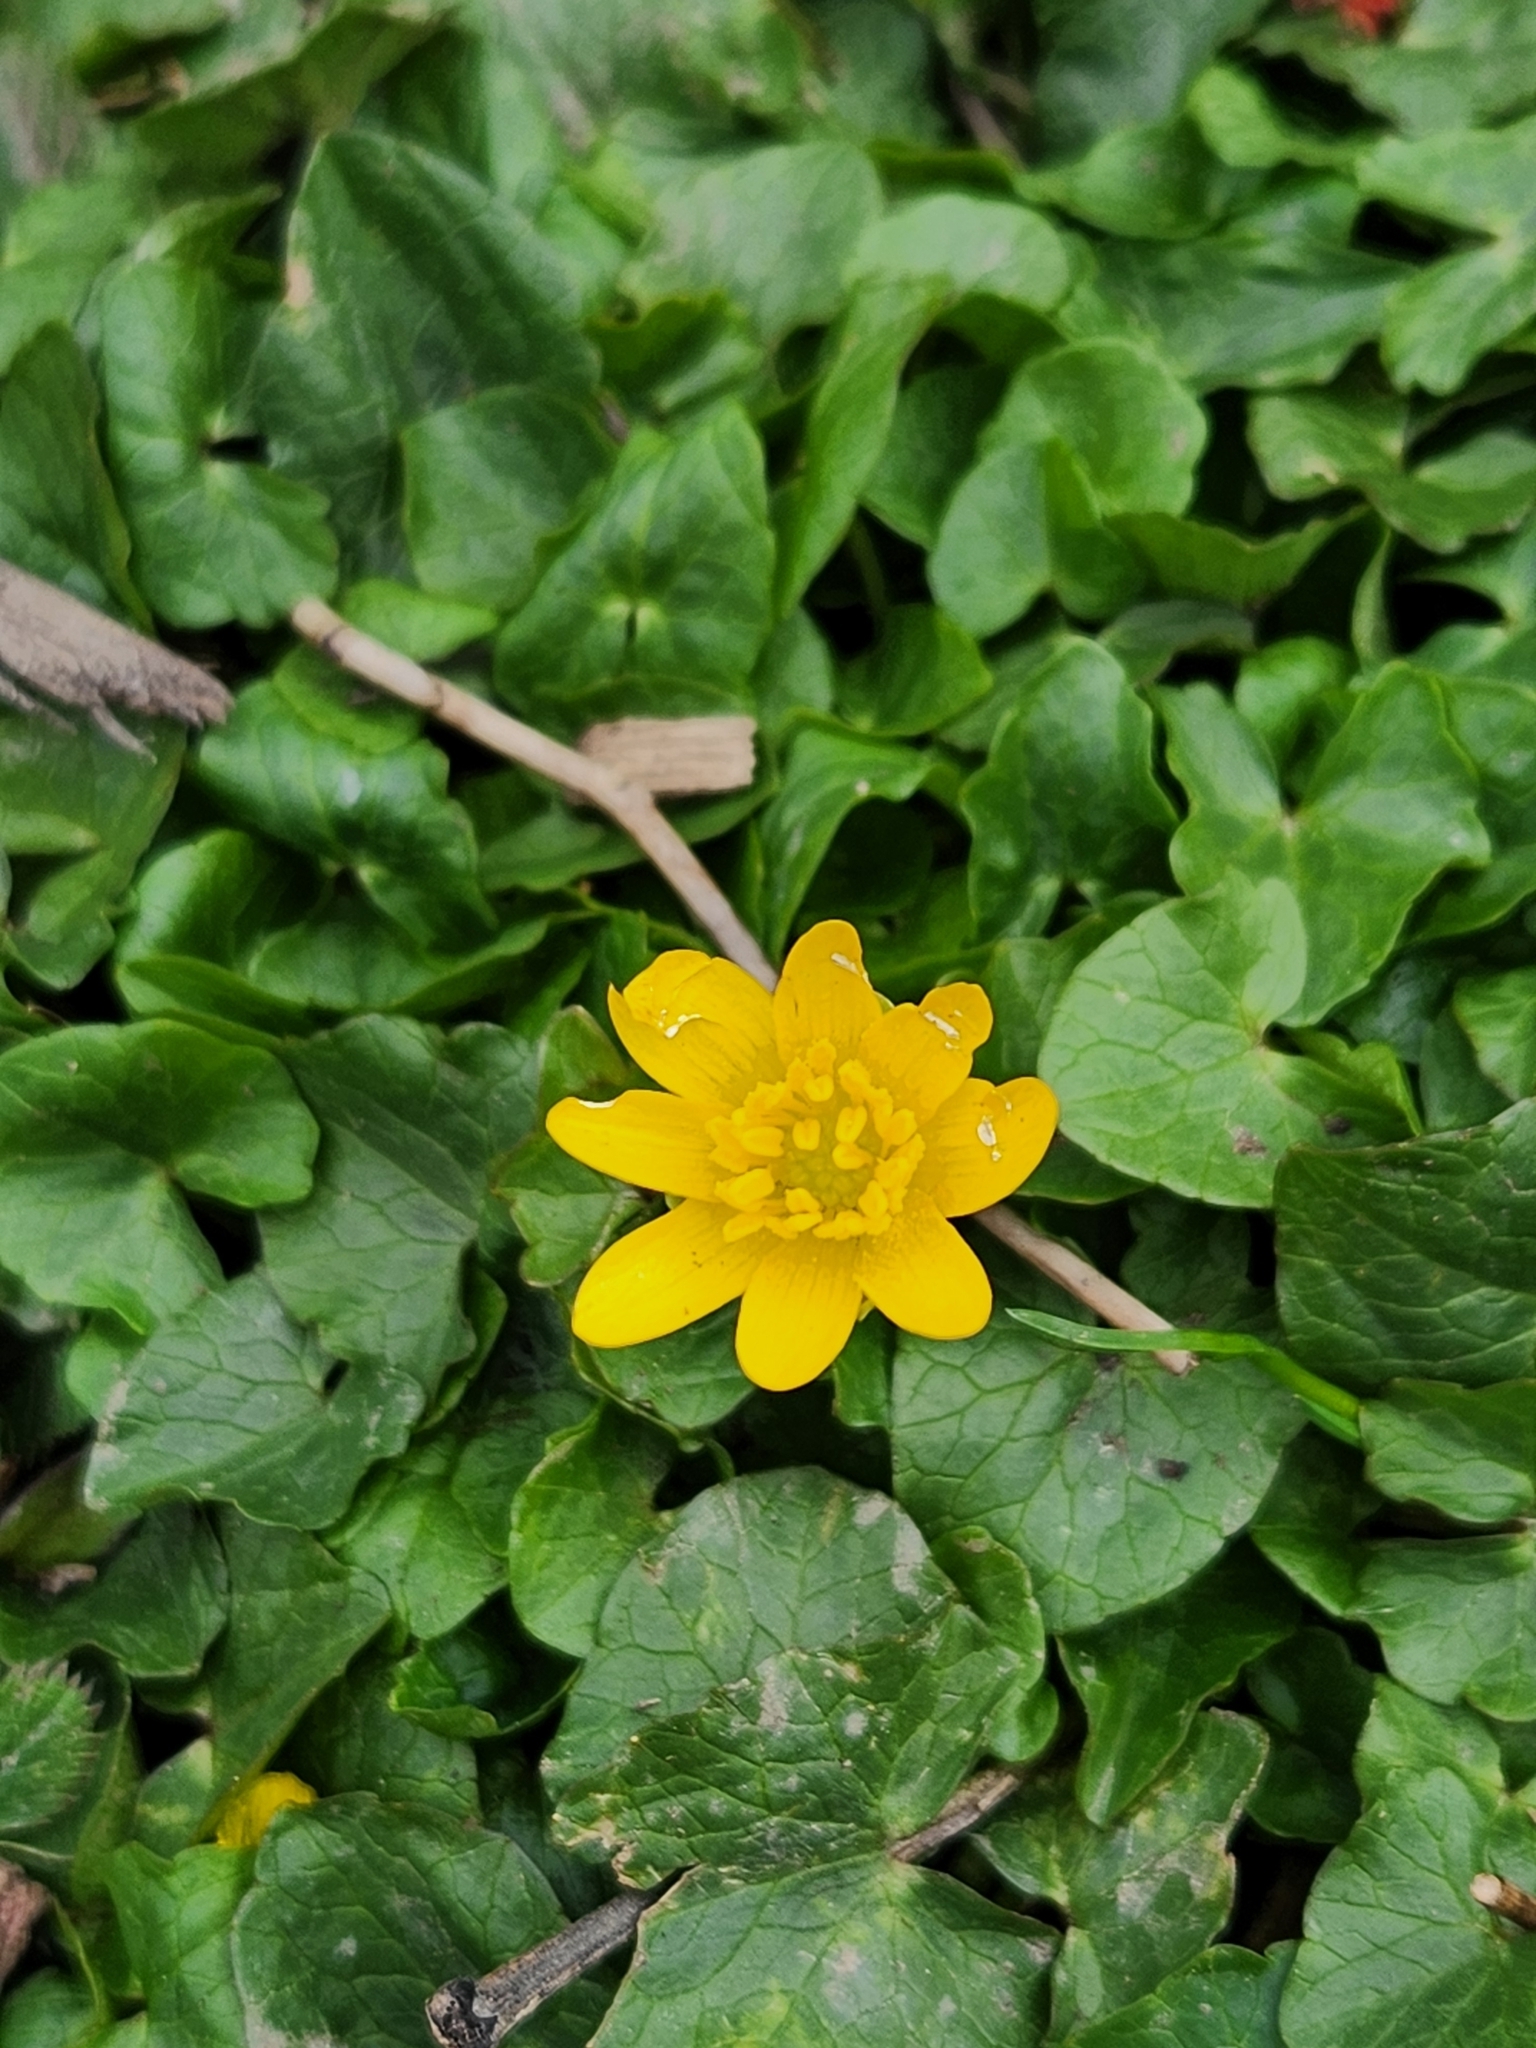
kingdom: Plantae
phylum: Tracheophyta
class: Magnoliopsida
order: Ranunculales
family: Ranunculaceae
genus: Ficaria
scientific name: Ficaria verna
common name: Lesser celandine
